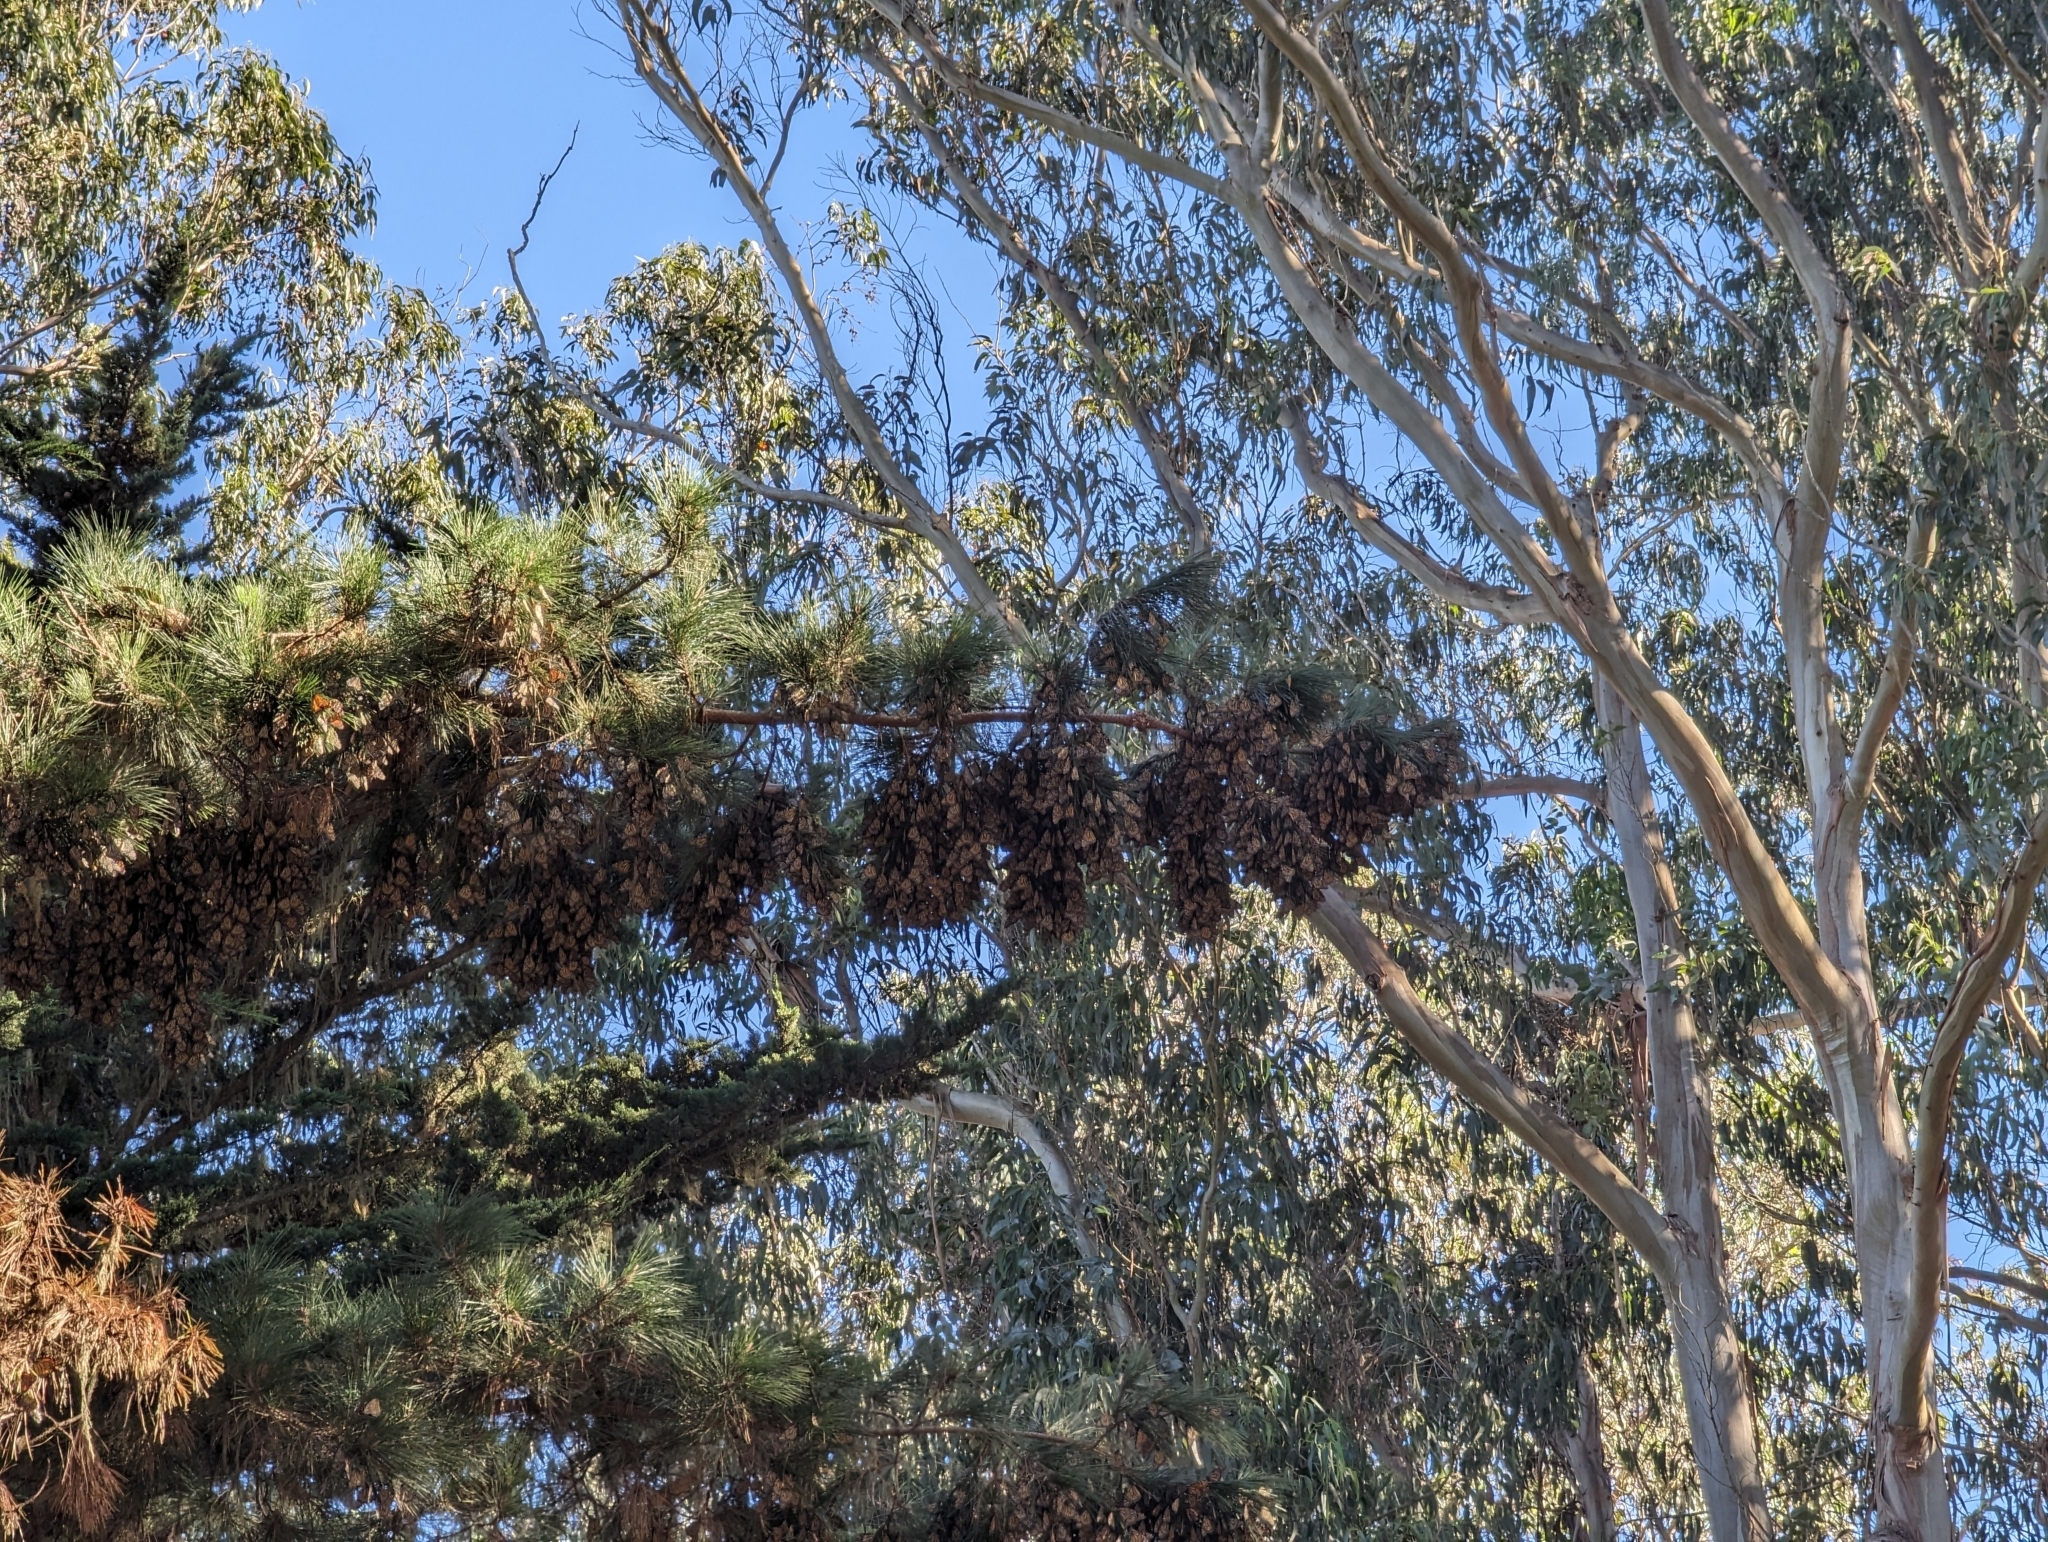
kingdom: Animalia
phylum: Arthropoda
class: Insecta
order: Lepidoptera
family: Nymphalidae
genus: Danaus
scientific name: Danaus plexippus
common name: Monarch
